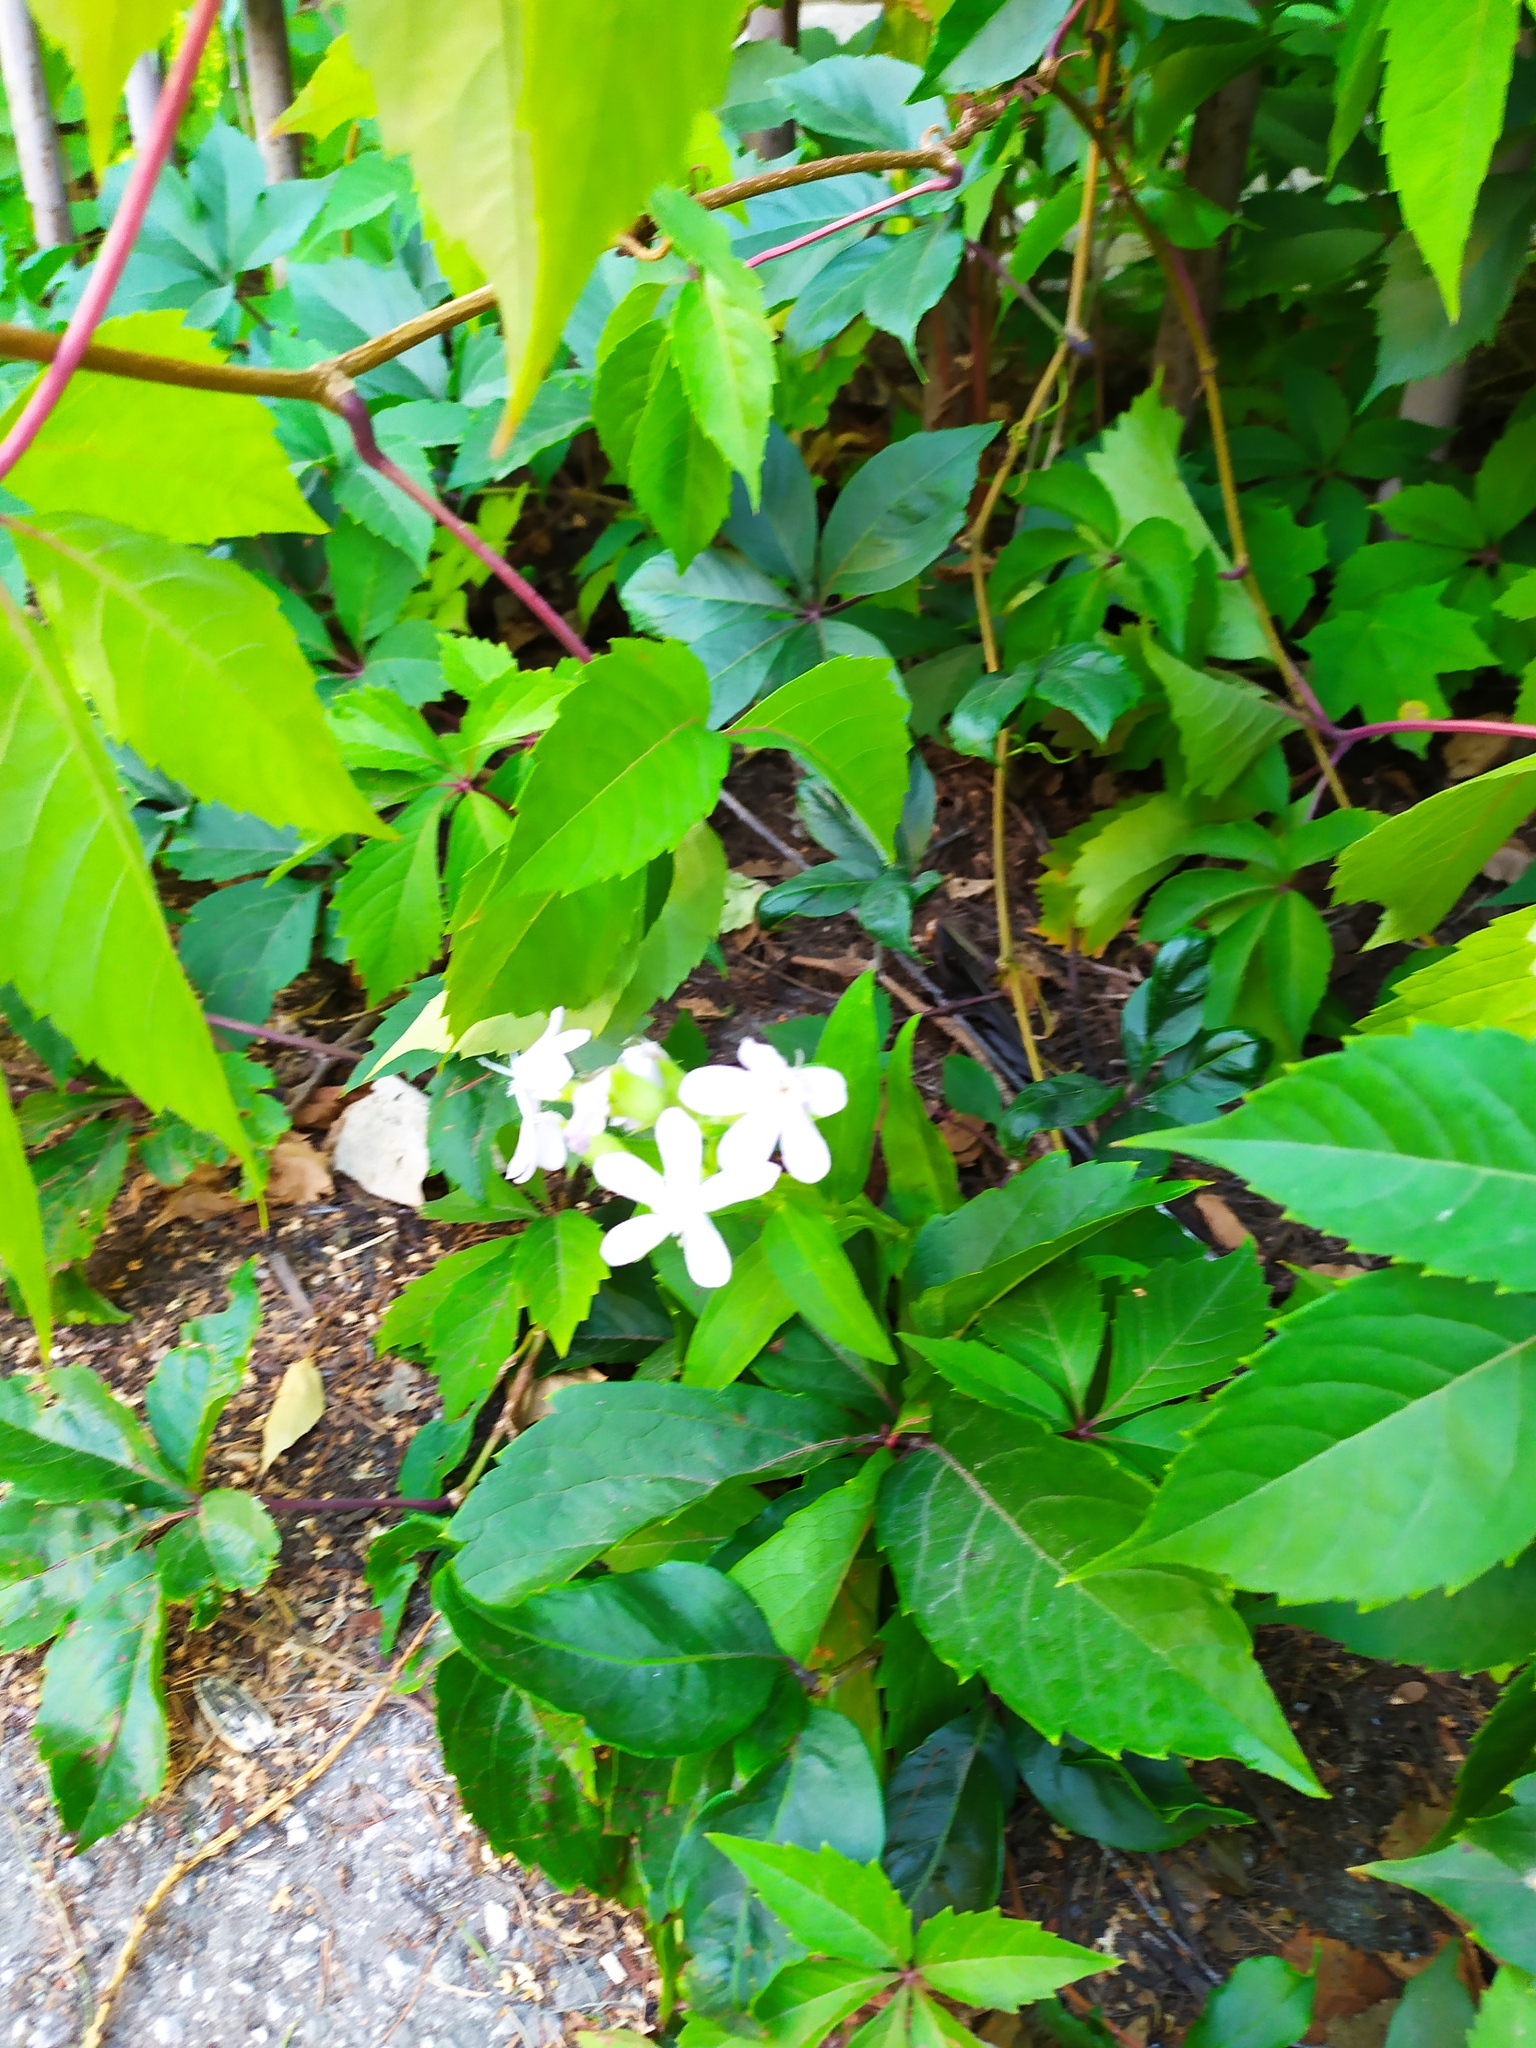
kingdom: Plantae
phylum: Tracheophyta
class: Magnoliopsida
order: Caryophyllales
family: Caryophyllaceae
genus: Saponaria
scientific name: Saponaria officinalis
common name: Soapwort
